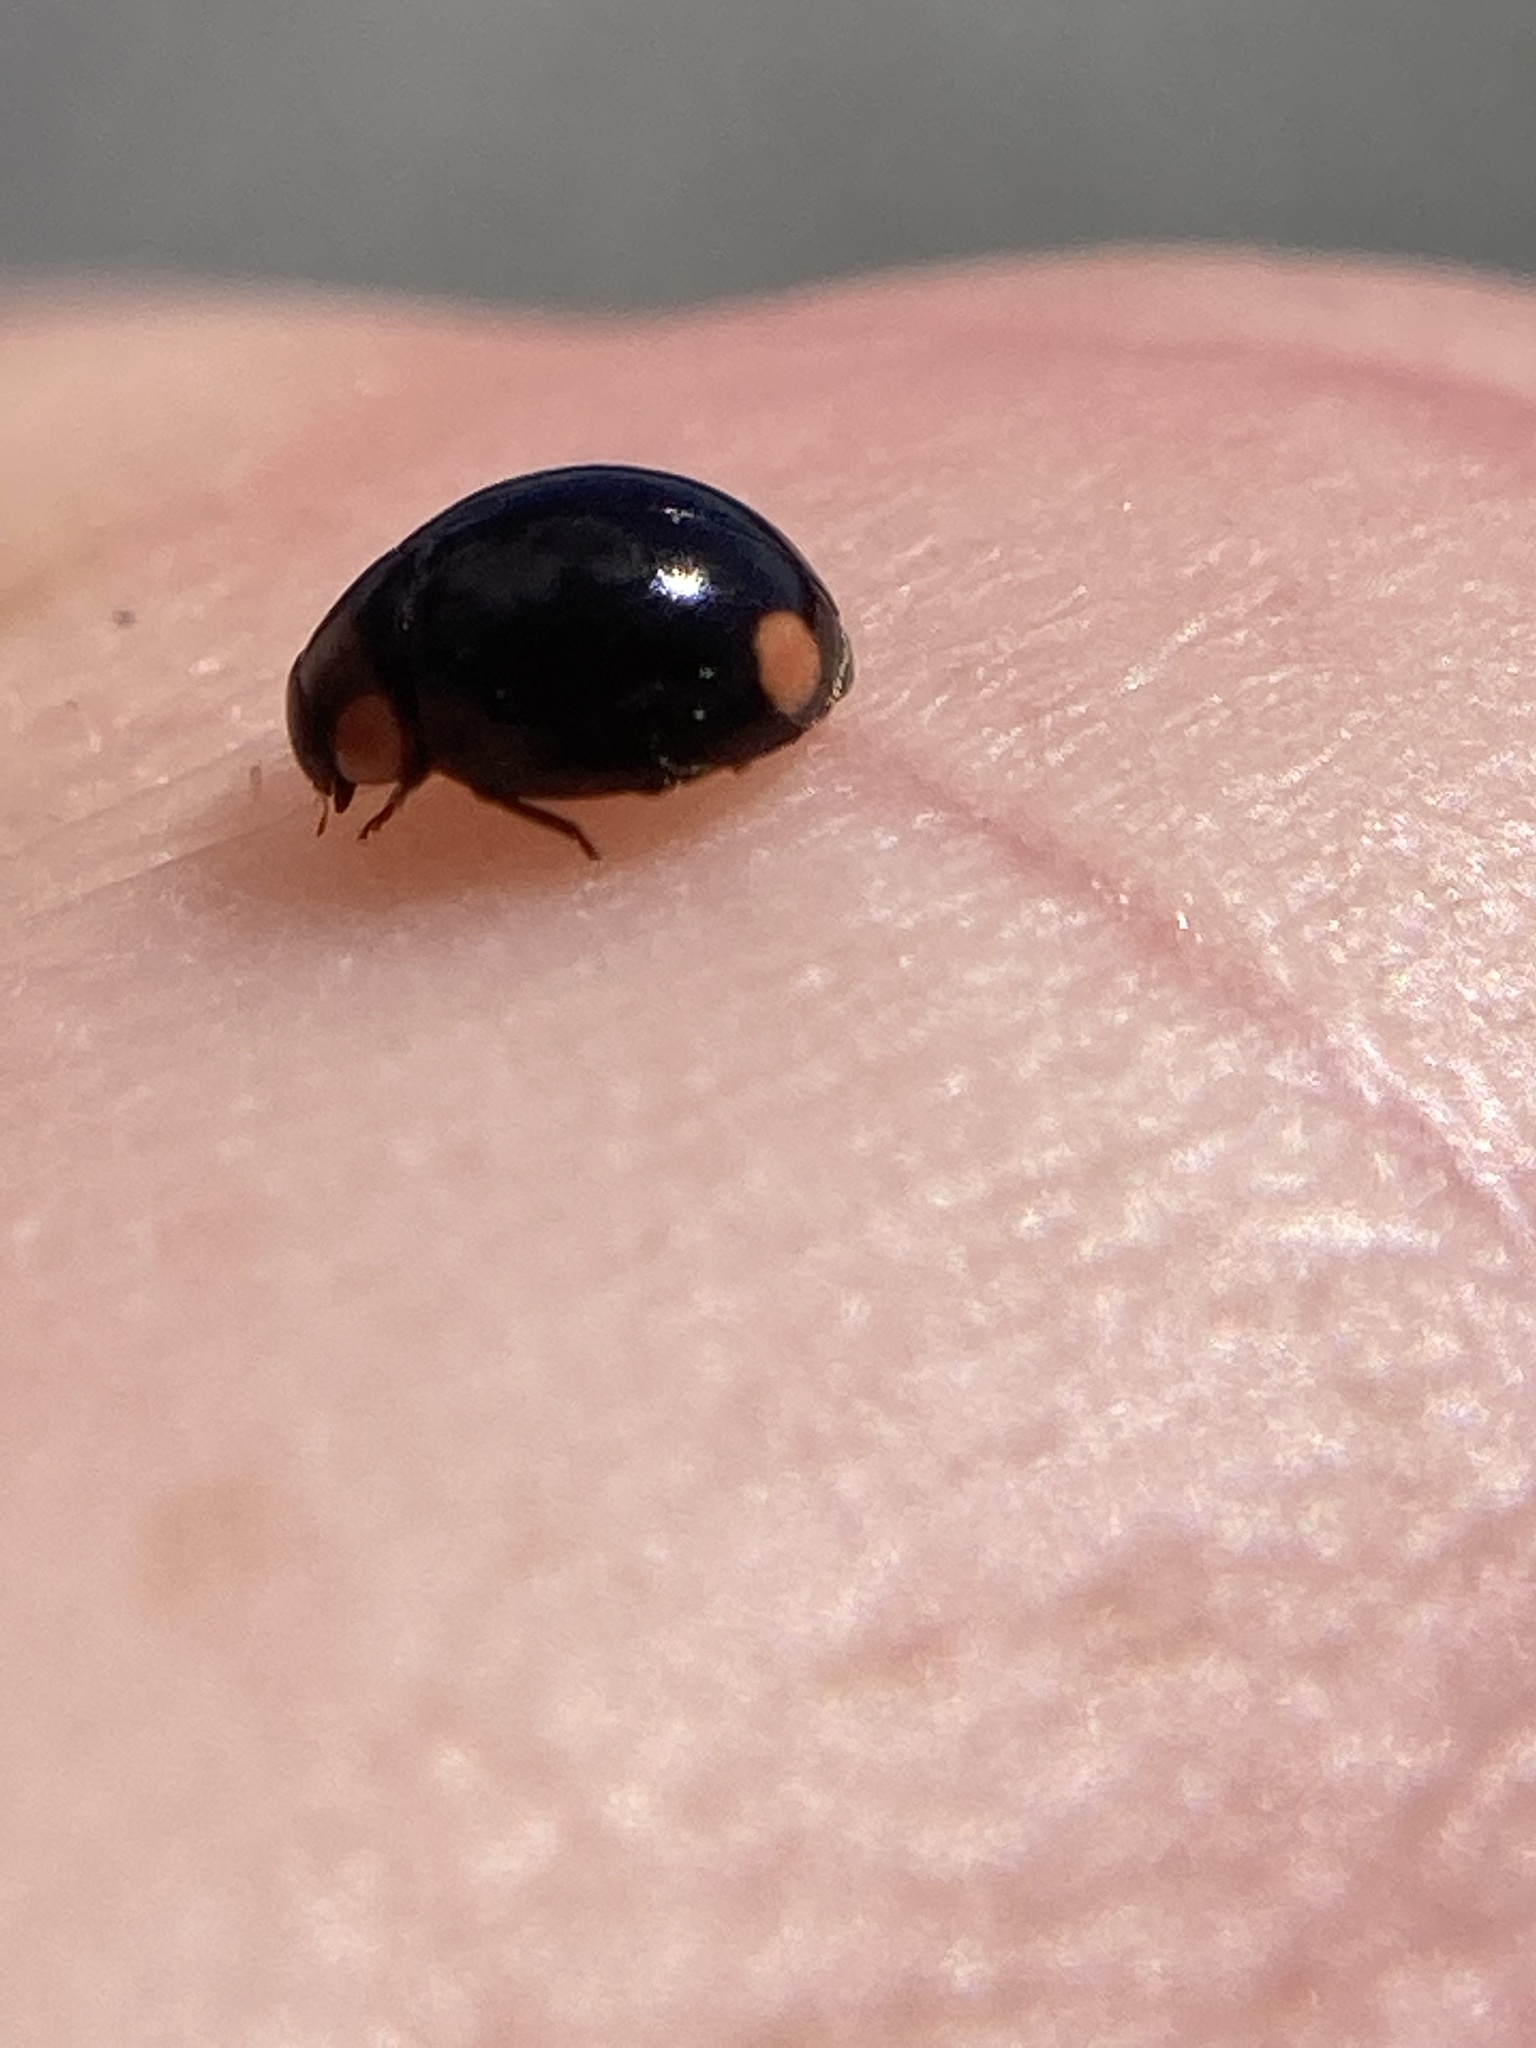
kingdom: Animalia
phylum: Arthropoda
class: Insecta
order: Coleoptera
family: Coccinellidae
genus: Hyperaspis
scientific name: Hyperaspis bigeminata
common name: Bigeminate sigil lady beetle
